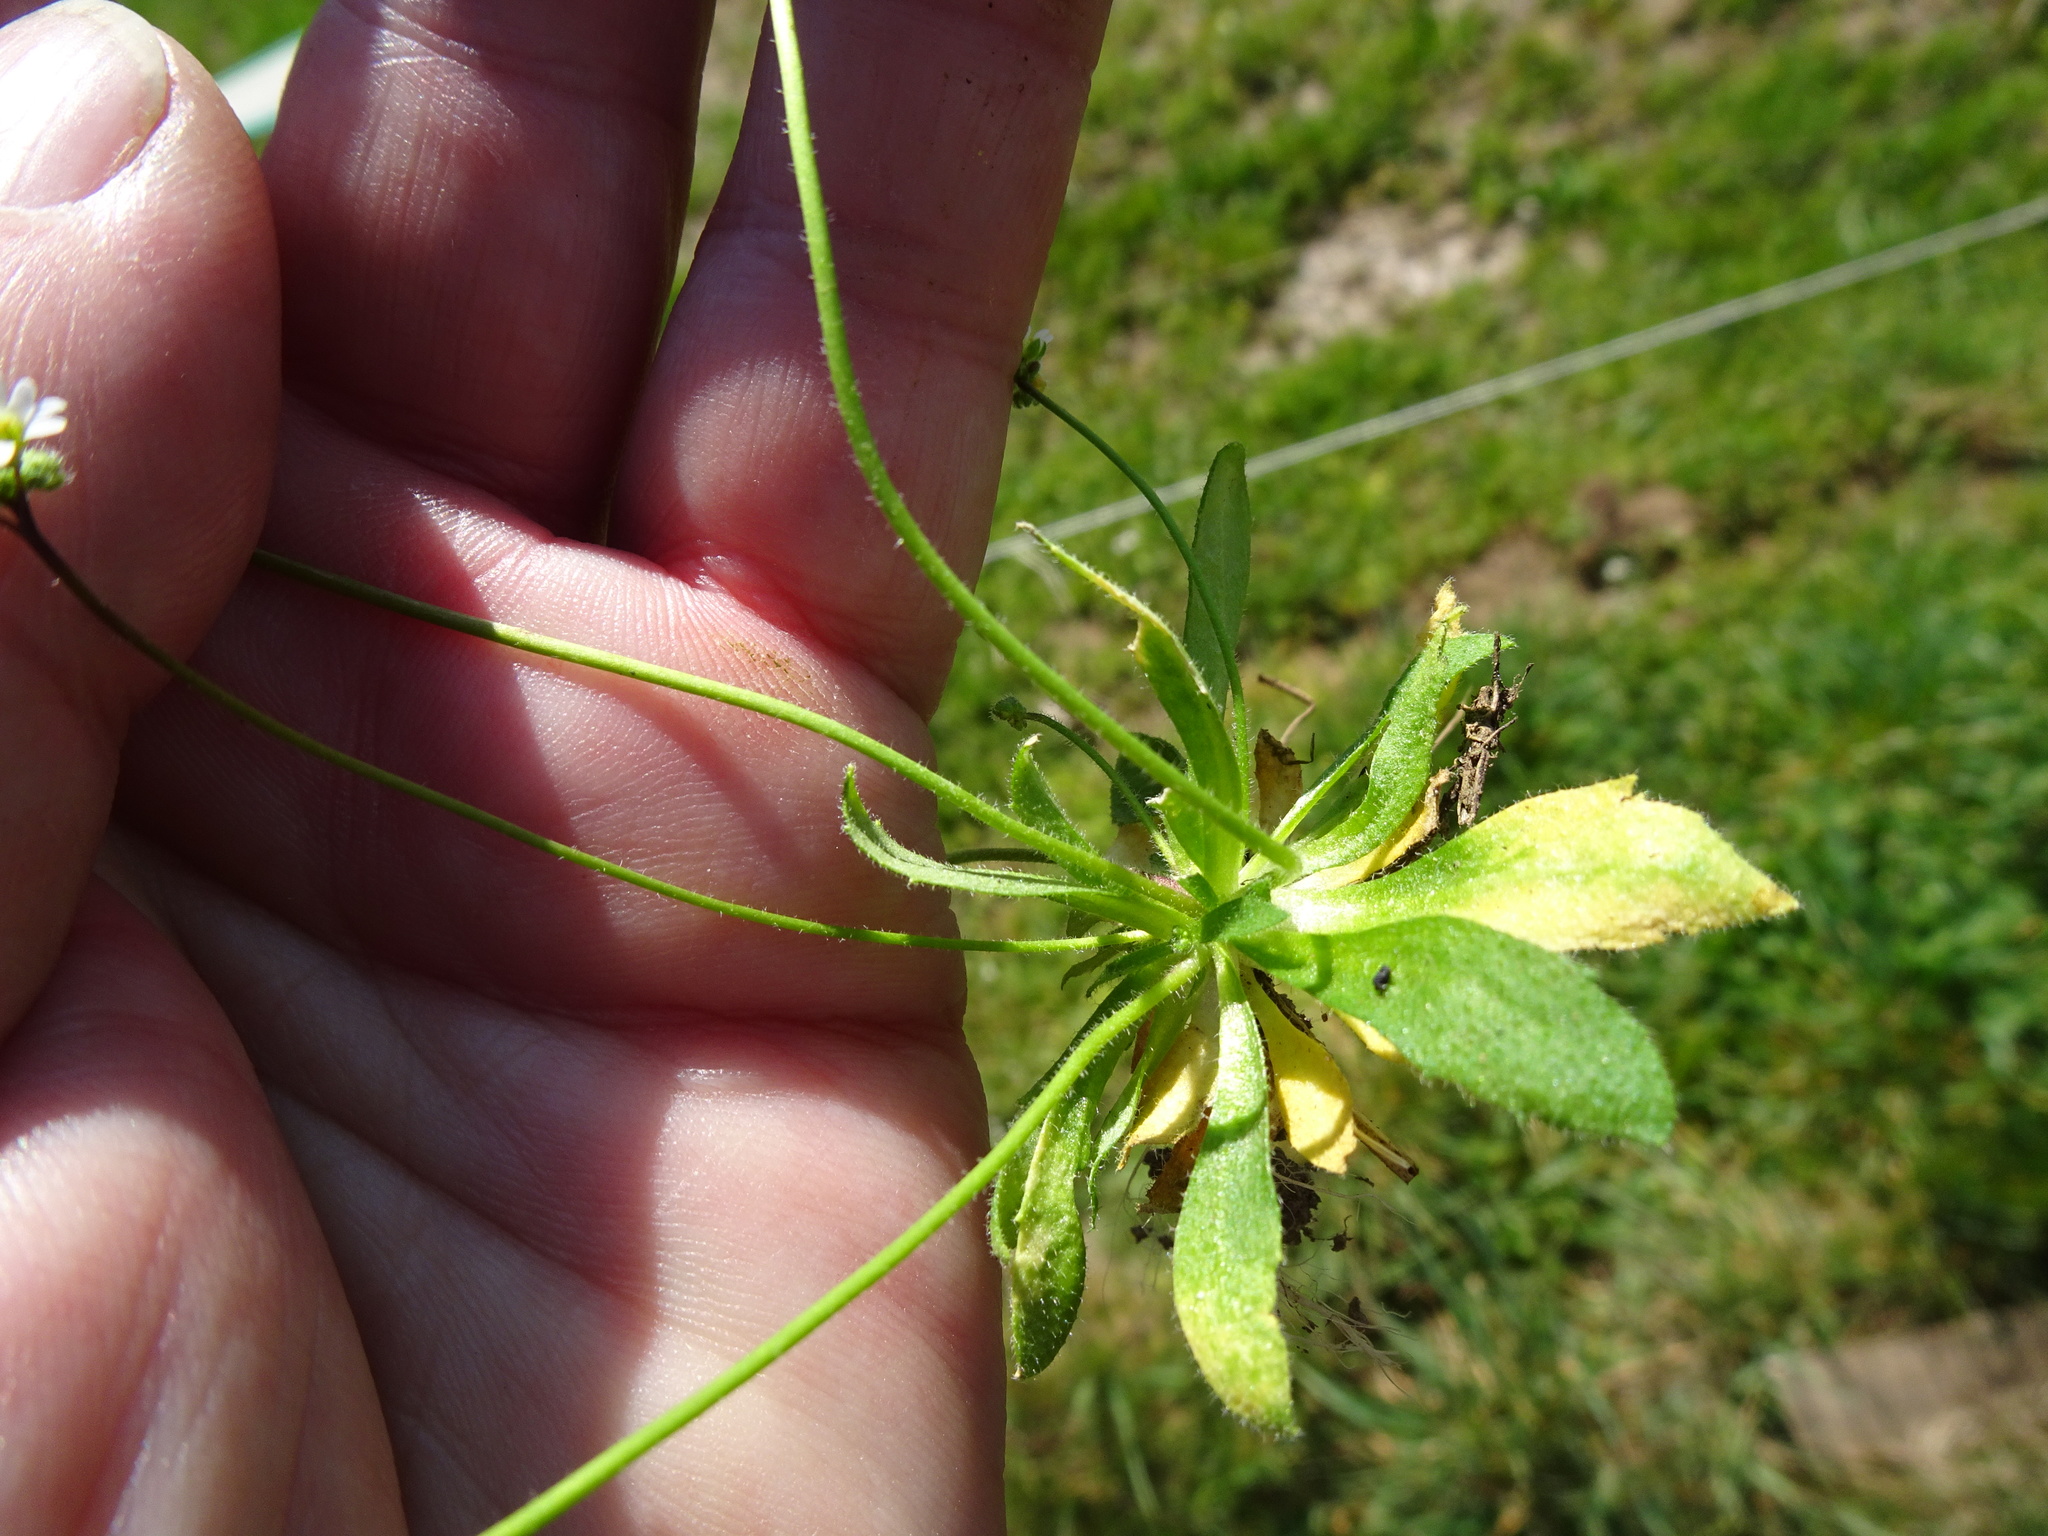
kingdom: Plantae
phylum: Tracheophyta
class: Magnoliopsida
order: Brassicales
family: Brassicaceae
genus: Draba
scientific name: Draba verna
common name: Spring draba
